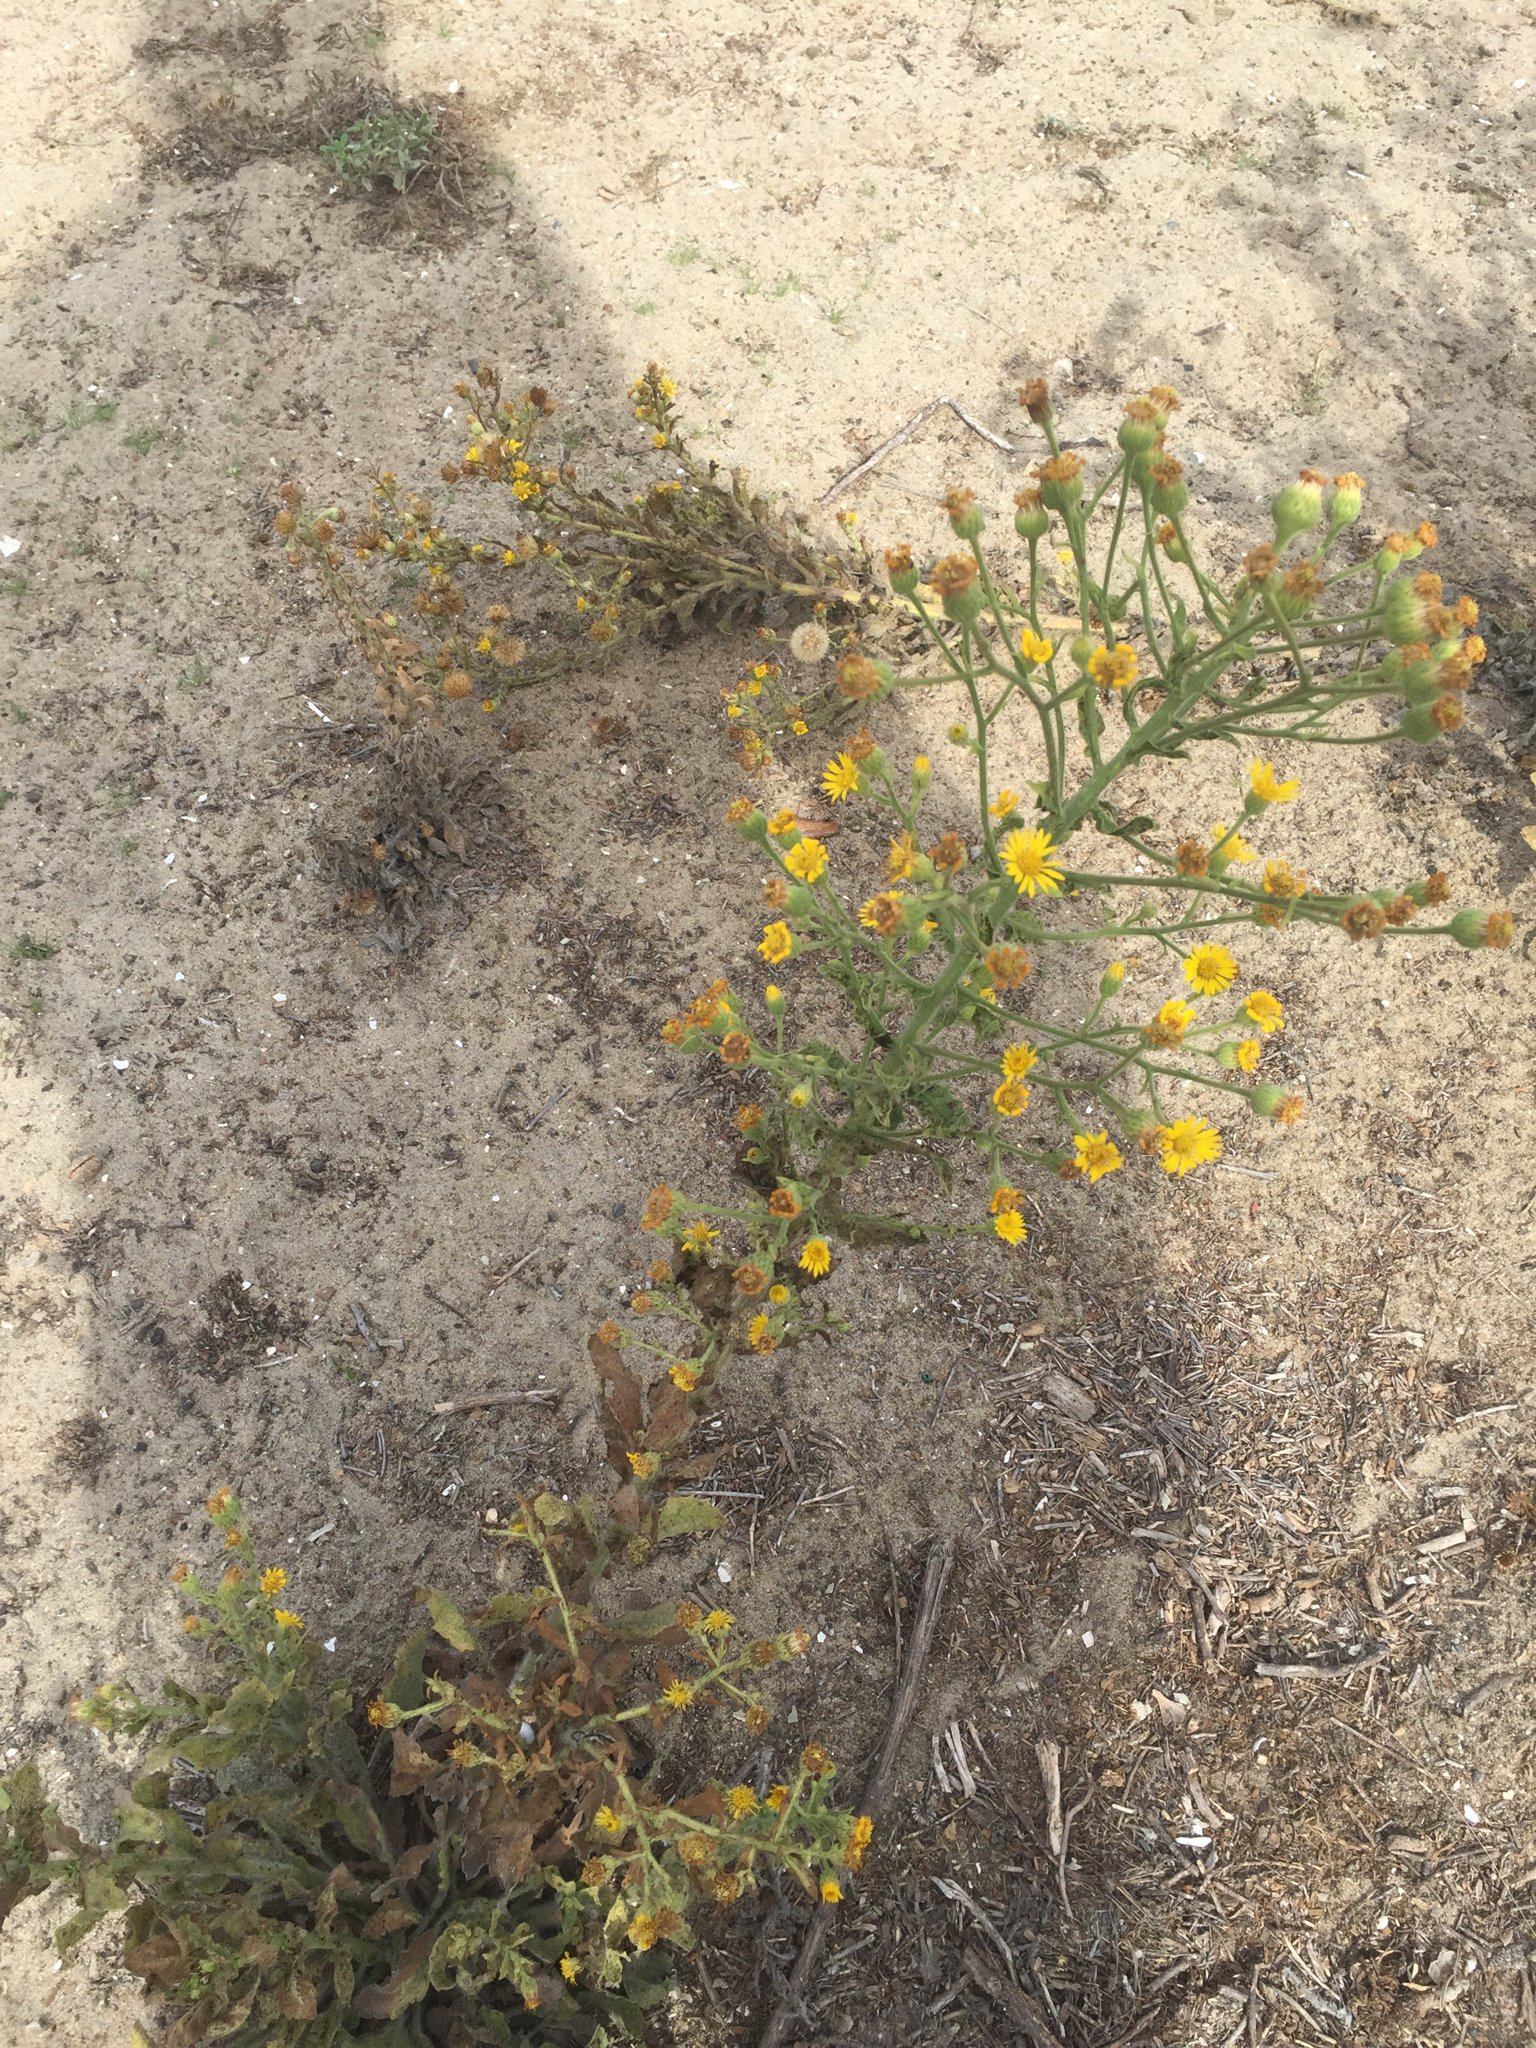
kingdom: Plantae
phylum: Tracheophyta
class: Magnoliopsida
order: Asterales
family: Asteraceae
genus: Heterotheca
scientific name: Heterotheca grandiflora
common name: Telegraphweed
